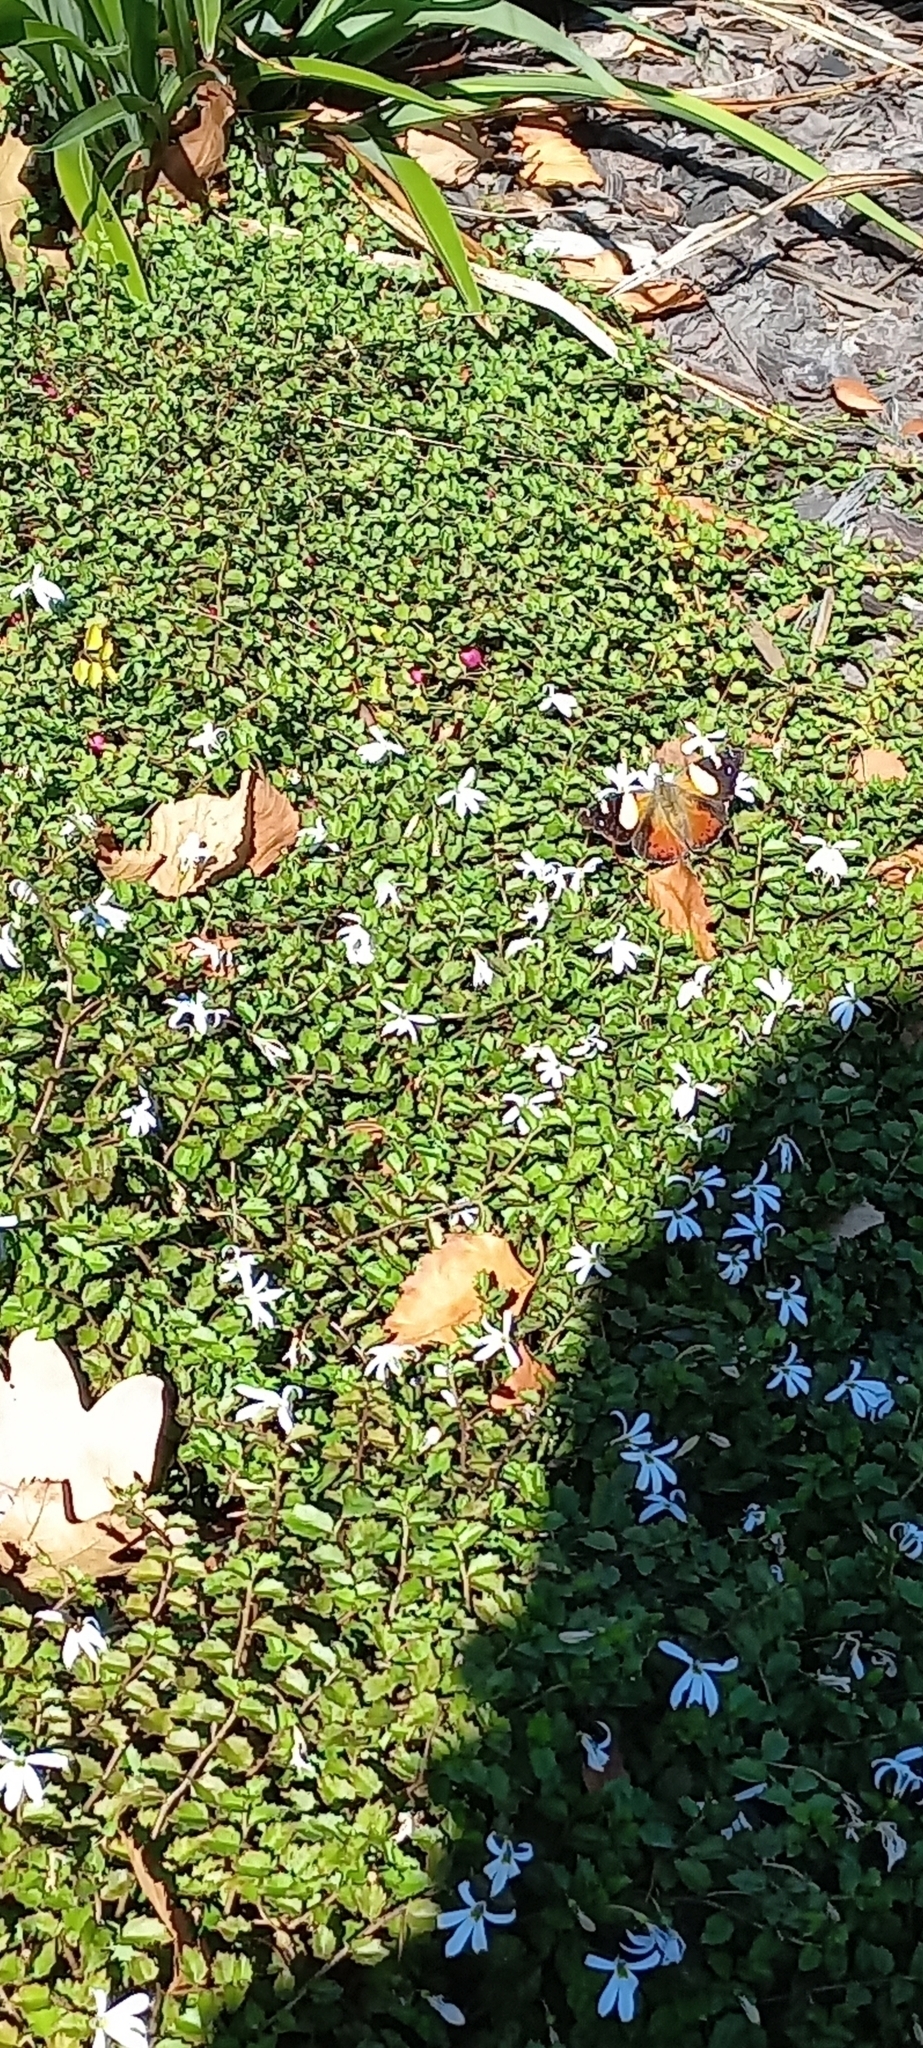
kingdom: Animalia
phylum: Arthropoda
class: Insecta
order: Lepidoptera
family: Nymphalidae
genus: Vanessa
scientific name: Vanessa itea
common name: Yellow admiral
